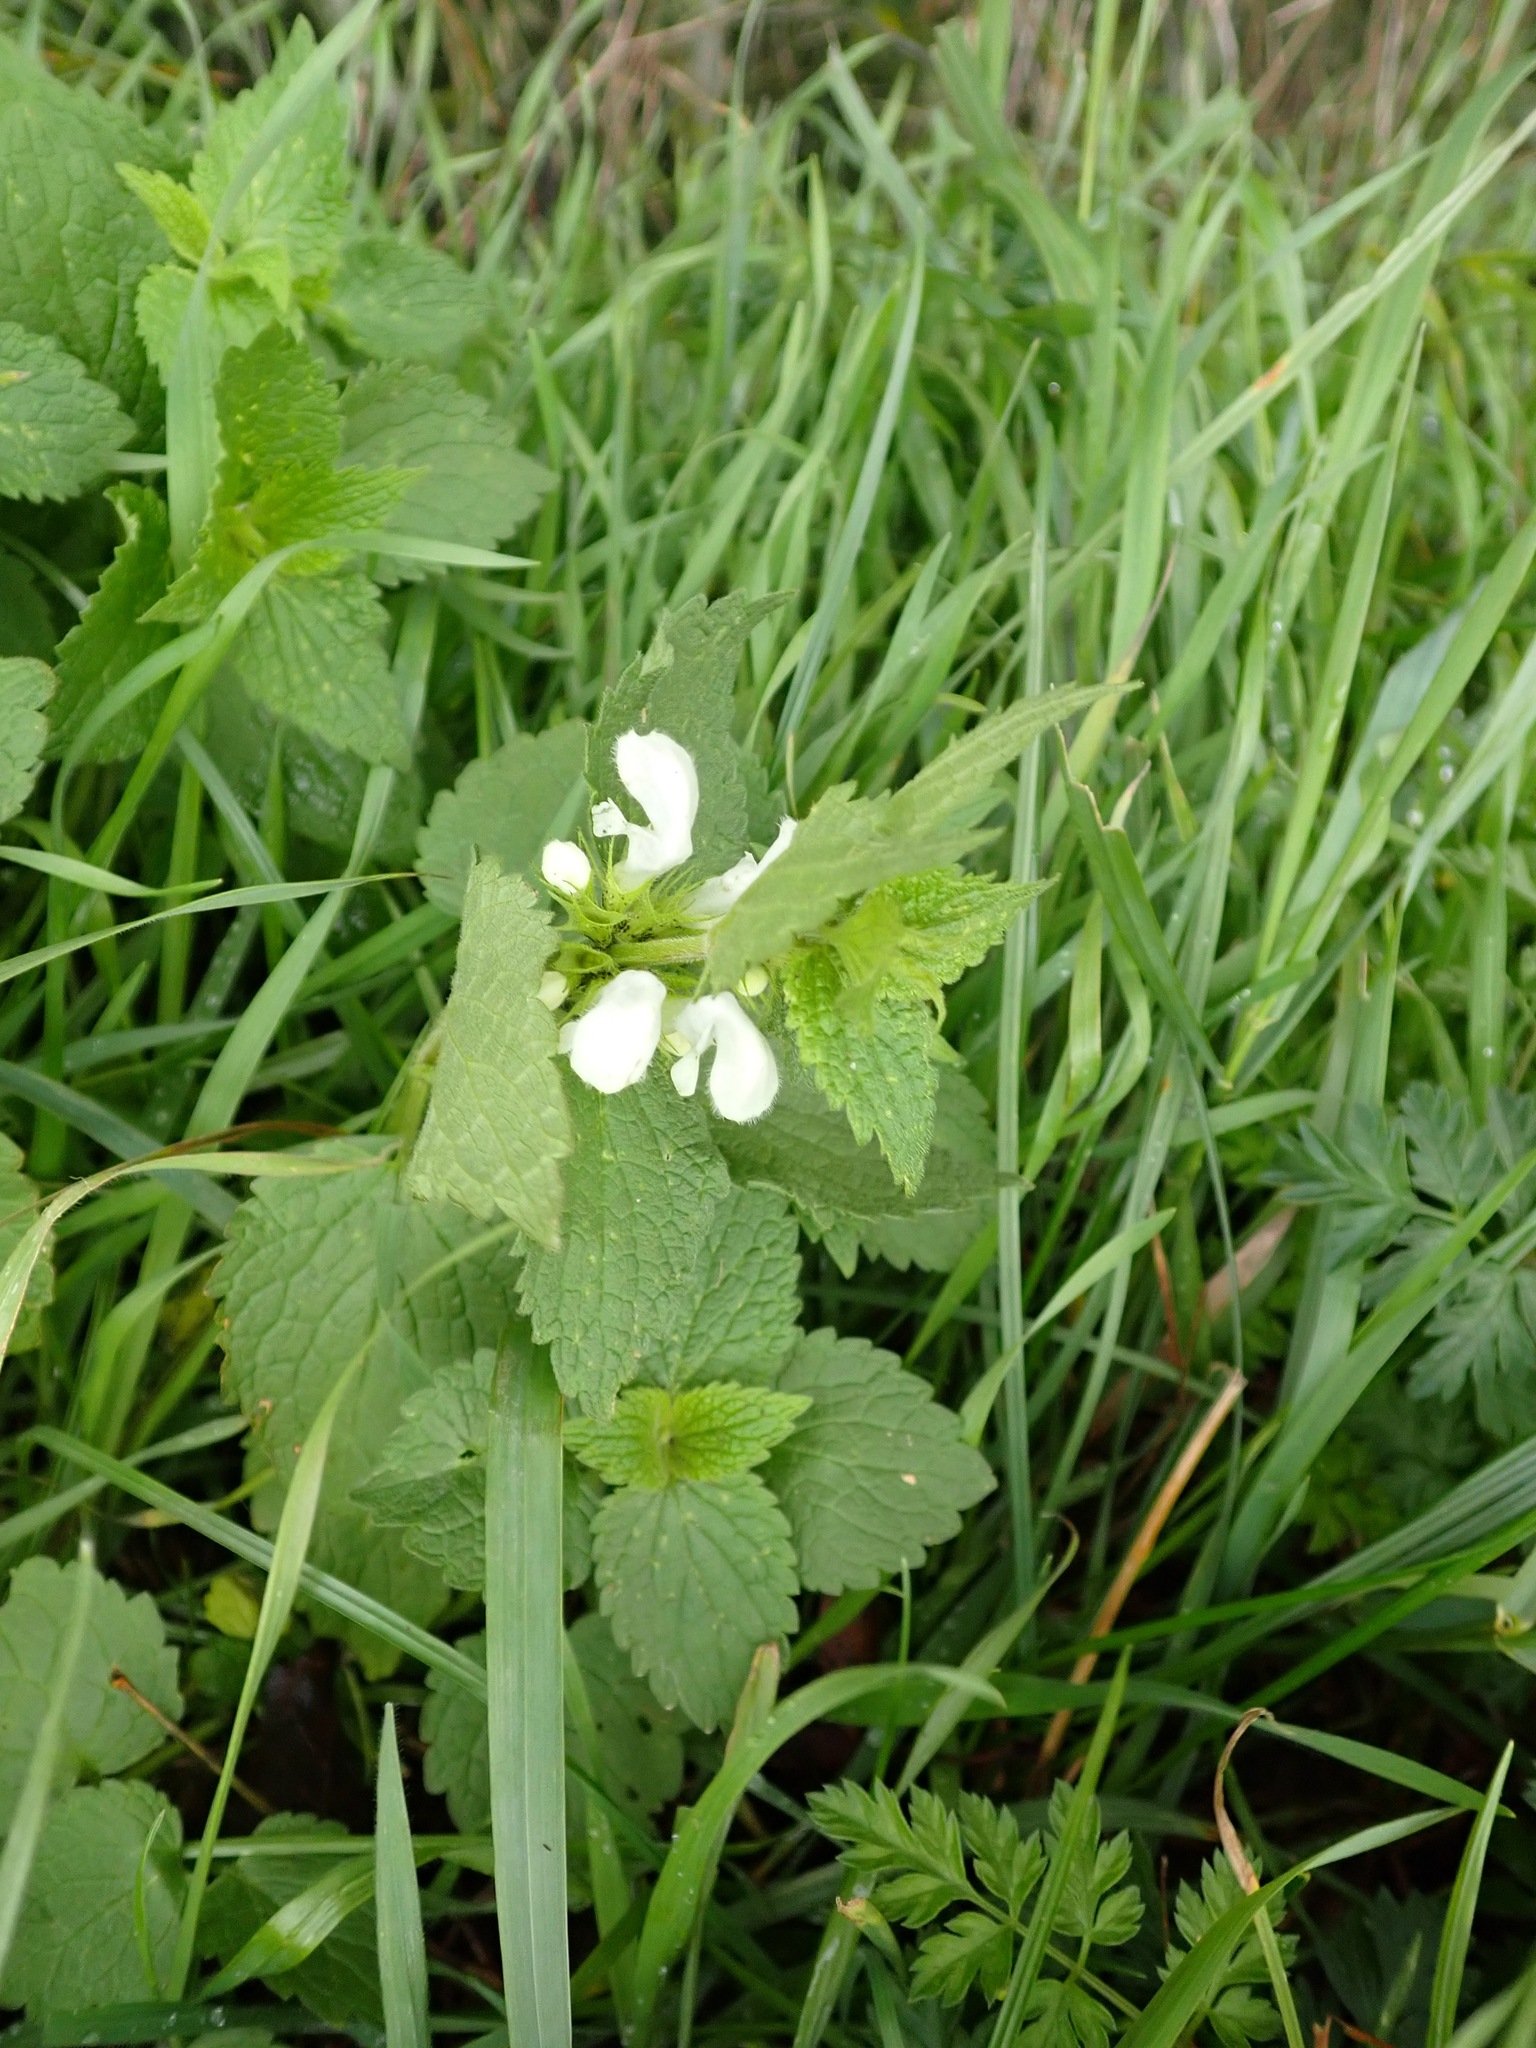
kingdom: Plantae
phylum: Tracheophyta
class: Magnoliopsida
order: Lamiales
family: Lamiaceae
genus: Lamium
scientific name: Lamium album
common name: White dead-nettle
